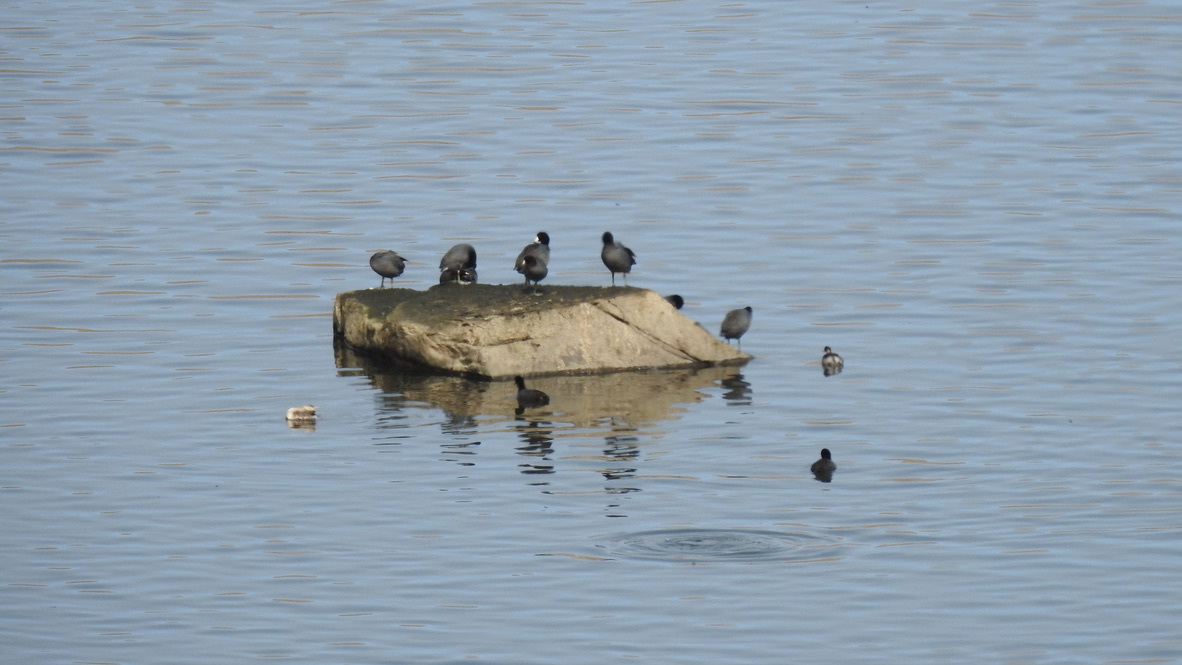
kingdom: Animalia
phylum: Chordata
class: Aves
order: Gruiformes
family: Rallidae
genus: Fulica
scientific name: Fulica americana
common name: American coot
